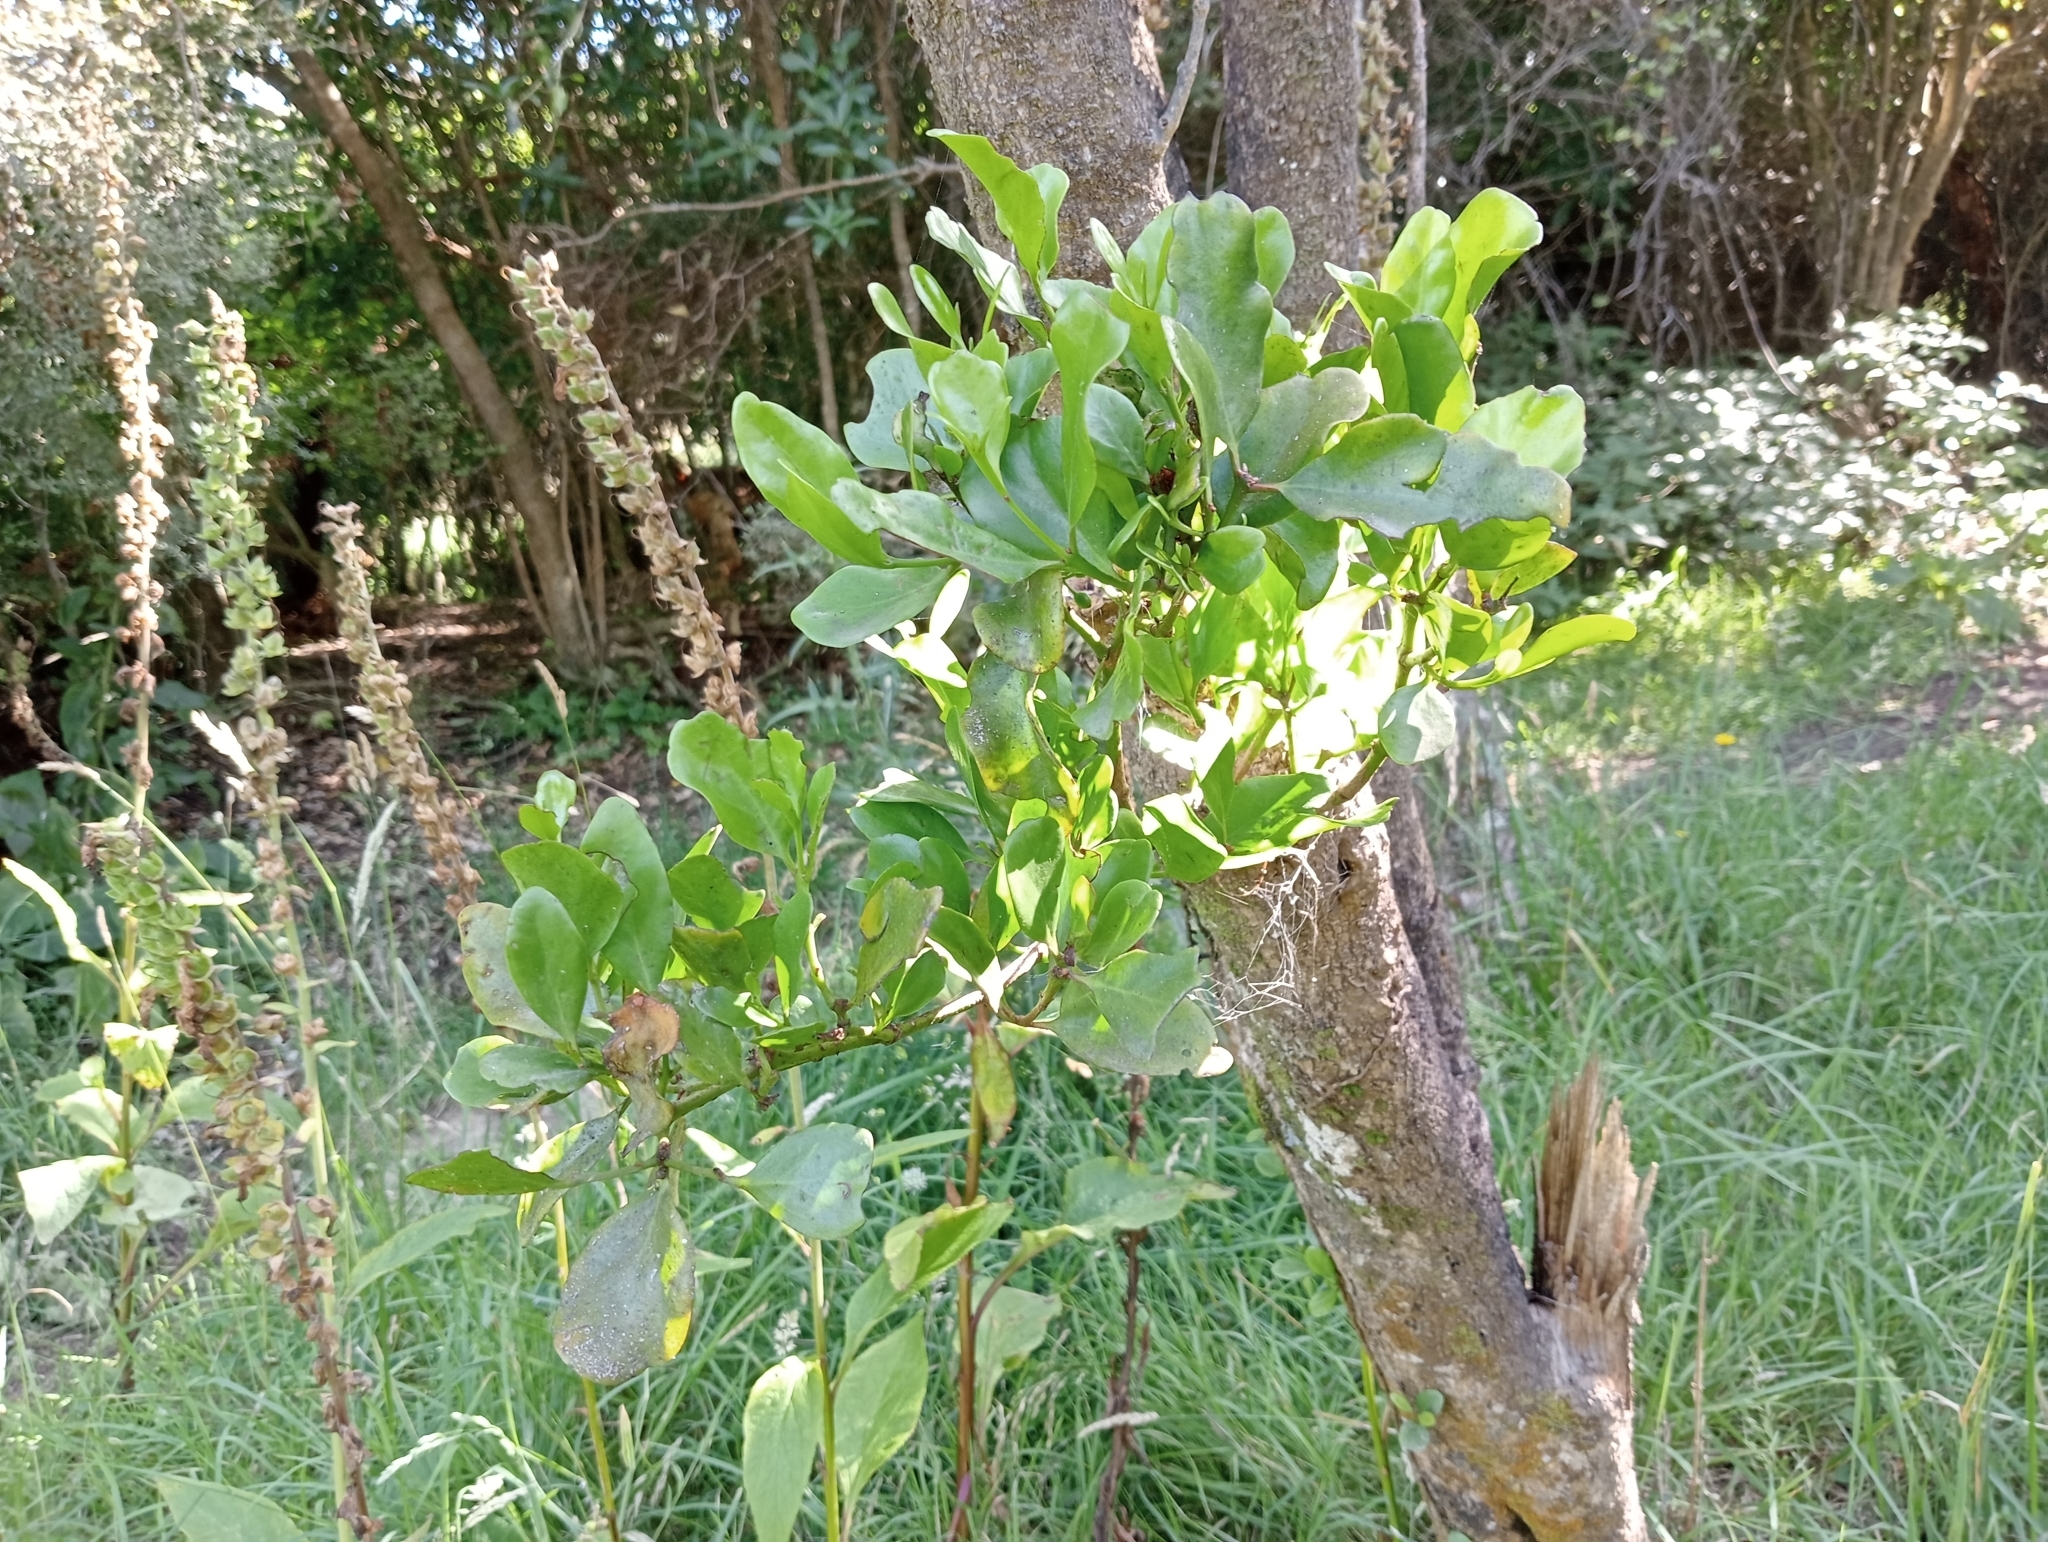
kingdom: Plantae
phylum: Tracheophyta
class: Magnoliopsida
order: Santalales
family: Loranthaceae
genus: Ileostylus
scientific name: Ileostylus micranthus
